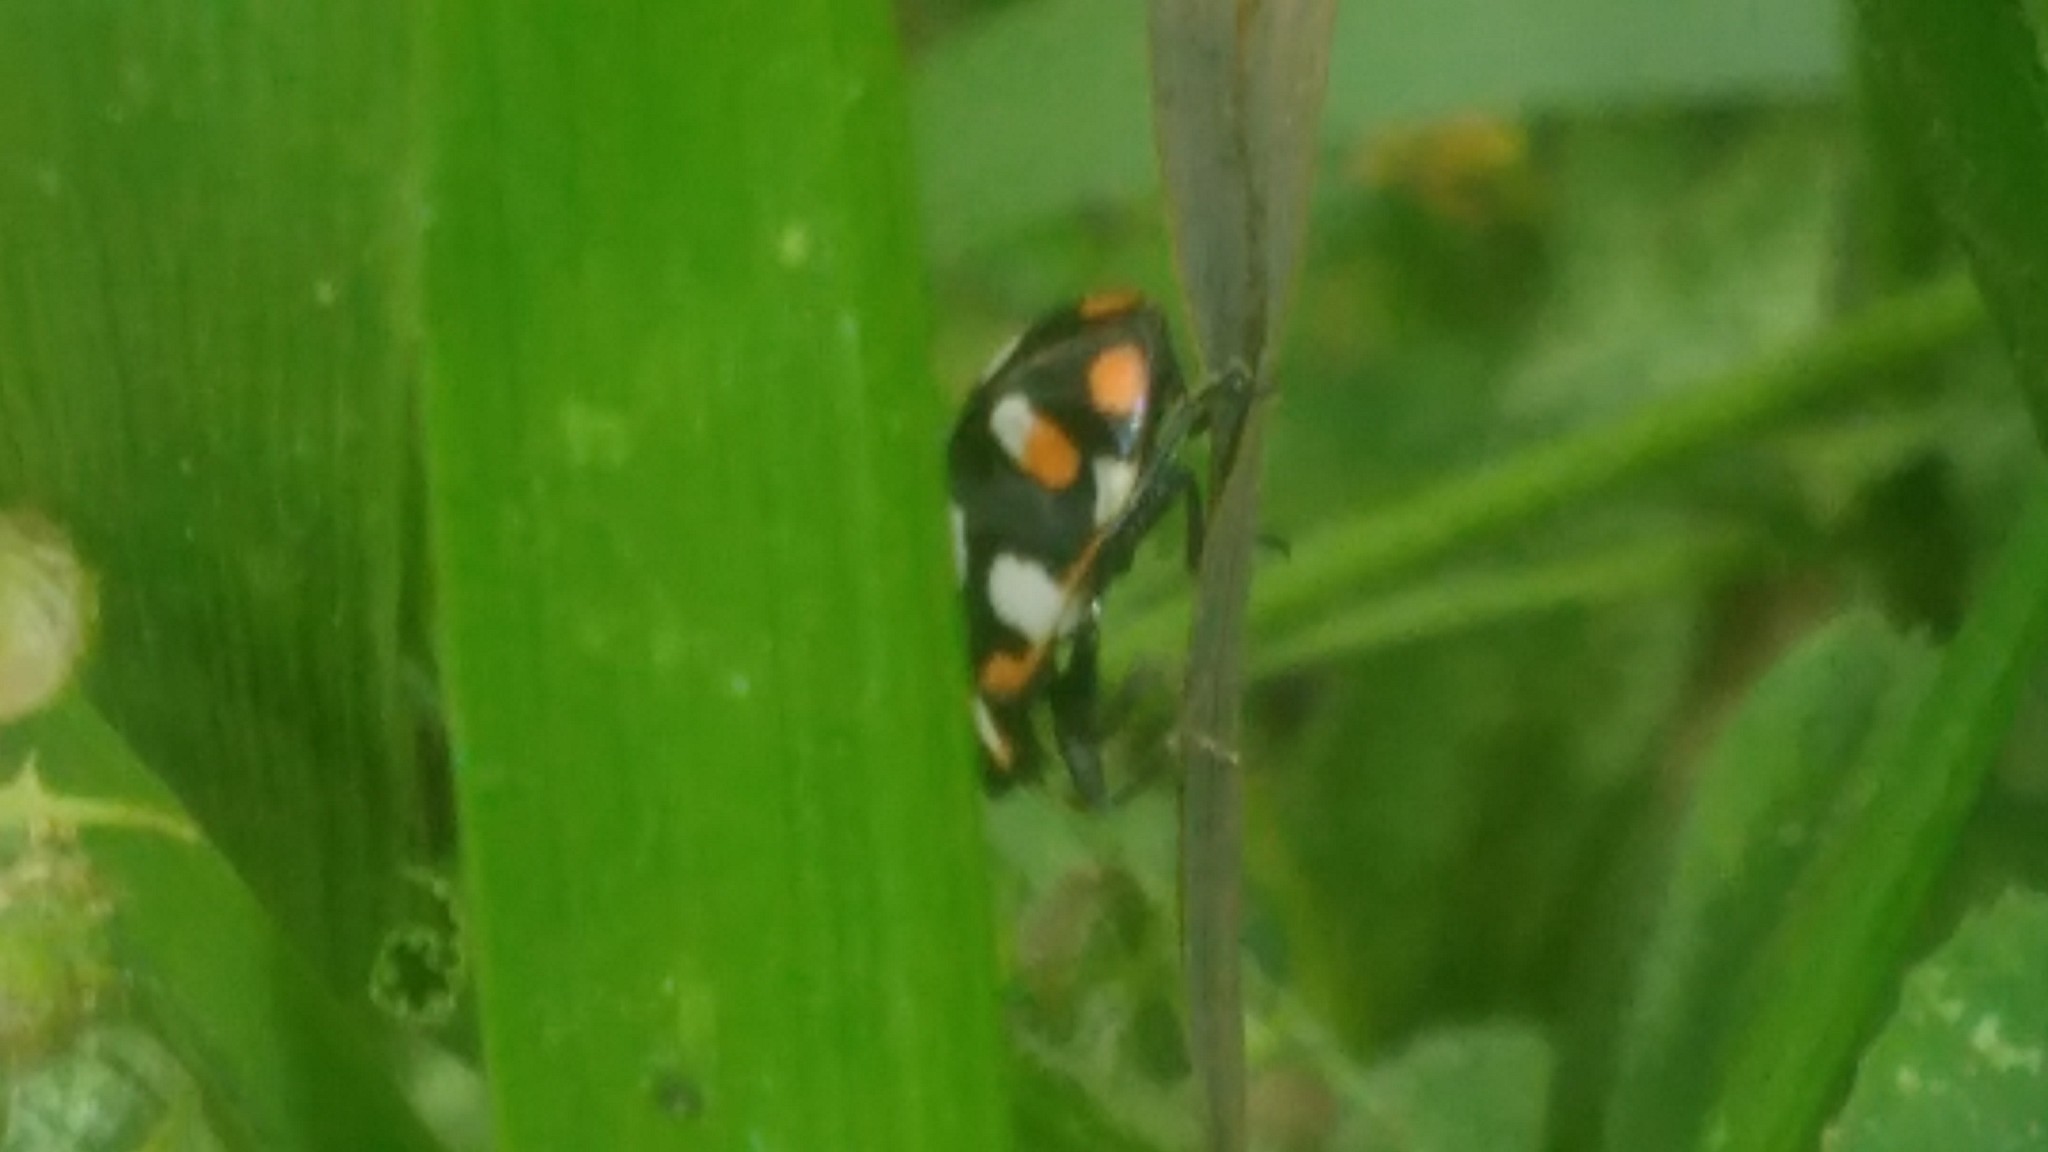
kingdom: Animalia
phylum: Arthropoda
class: Insecta
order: Coleoptera
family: Coccinellidae
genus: Eriopis
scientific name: Eriopis connexa
